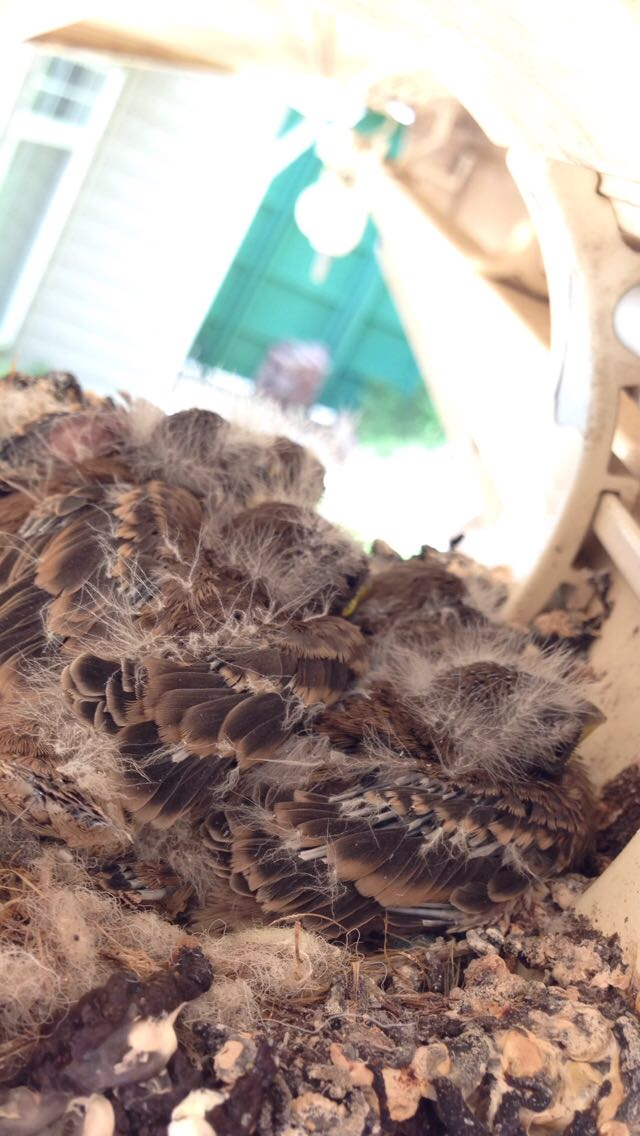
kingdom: Animalia
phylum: Chordata
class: Aves
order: Passeriformes
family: Troglodytidae
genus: Thryothorus
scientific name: Thryothorus ludovicianus
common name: Carolina wren
